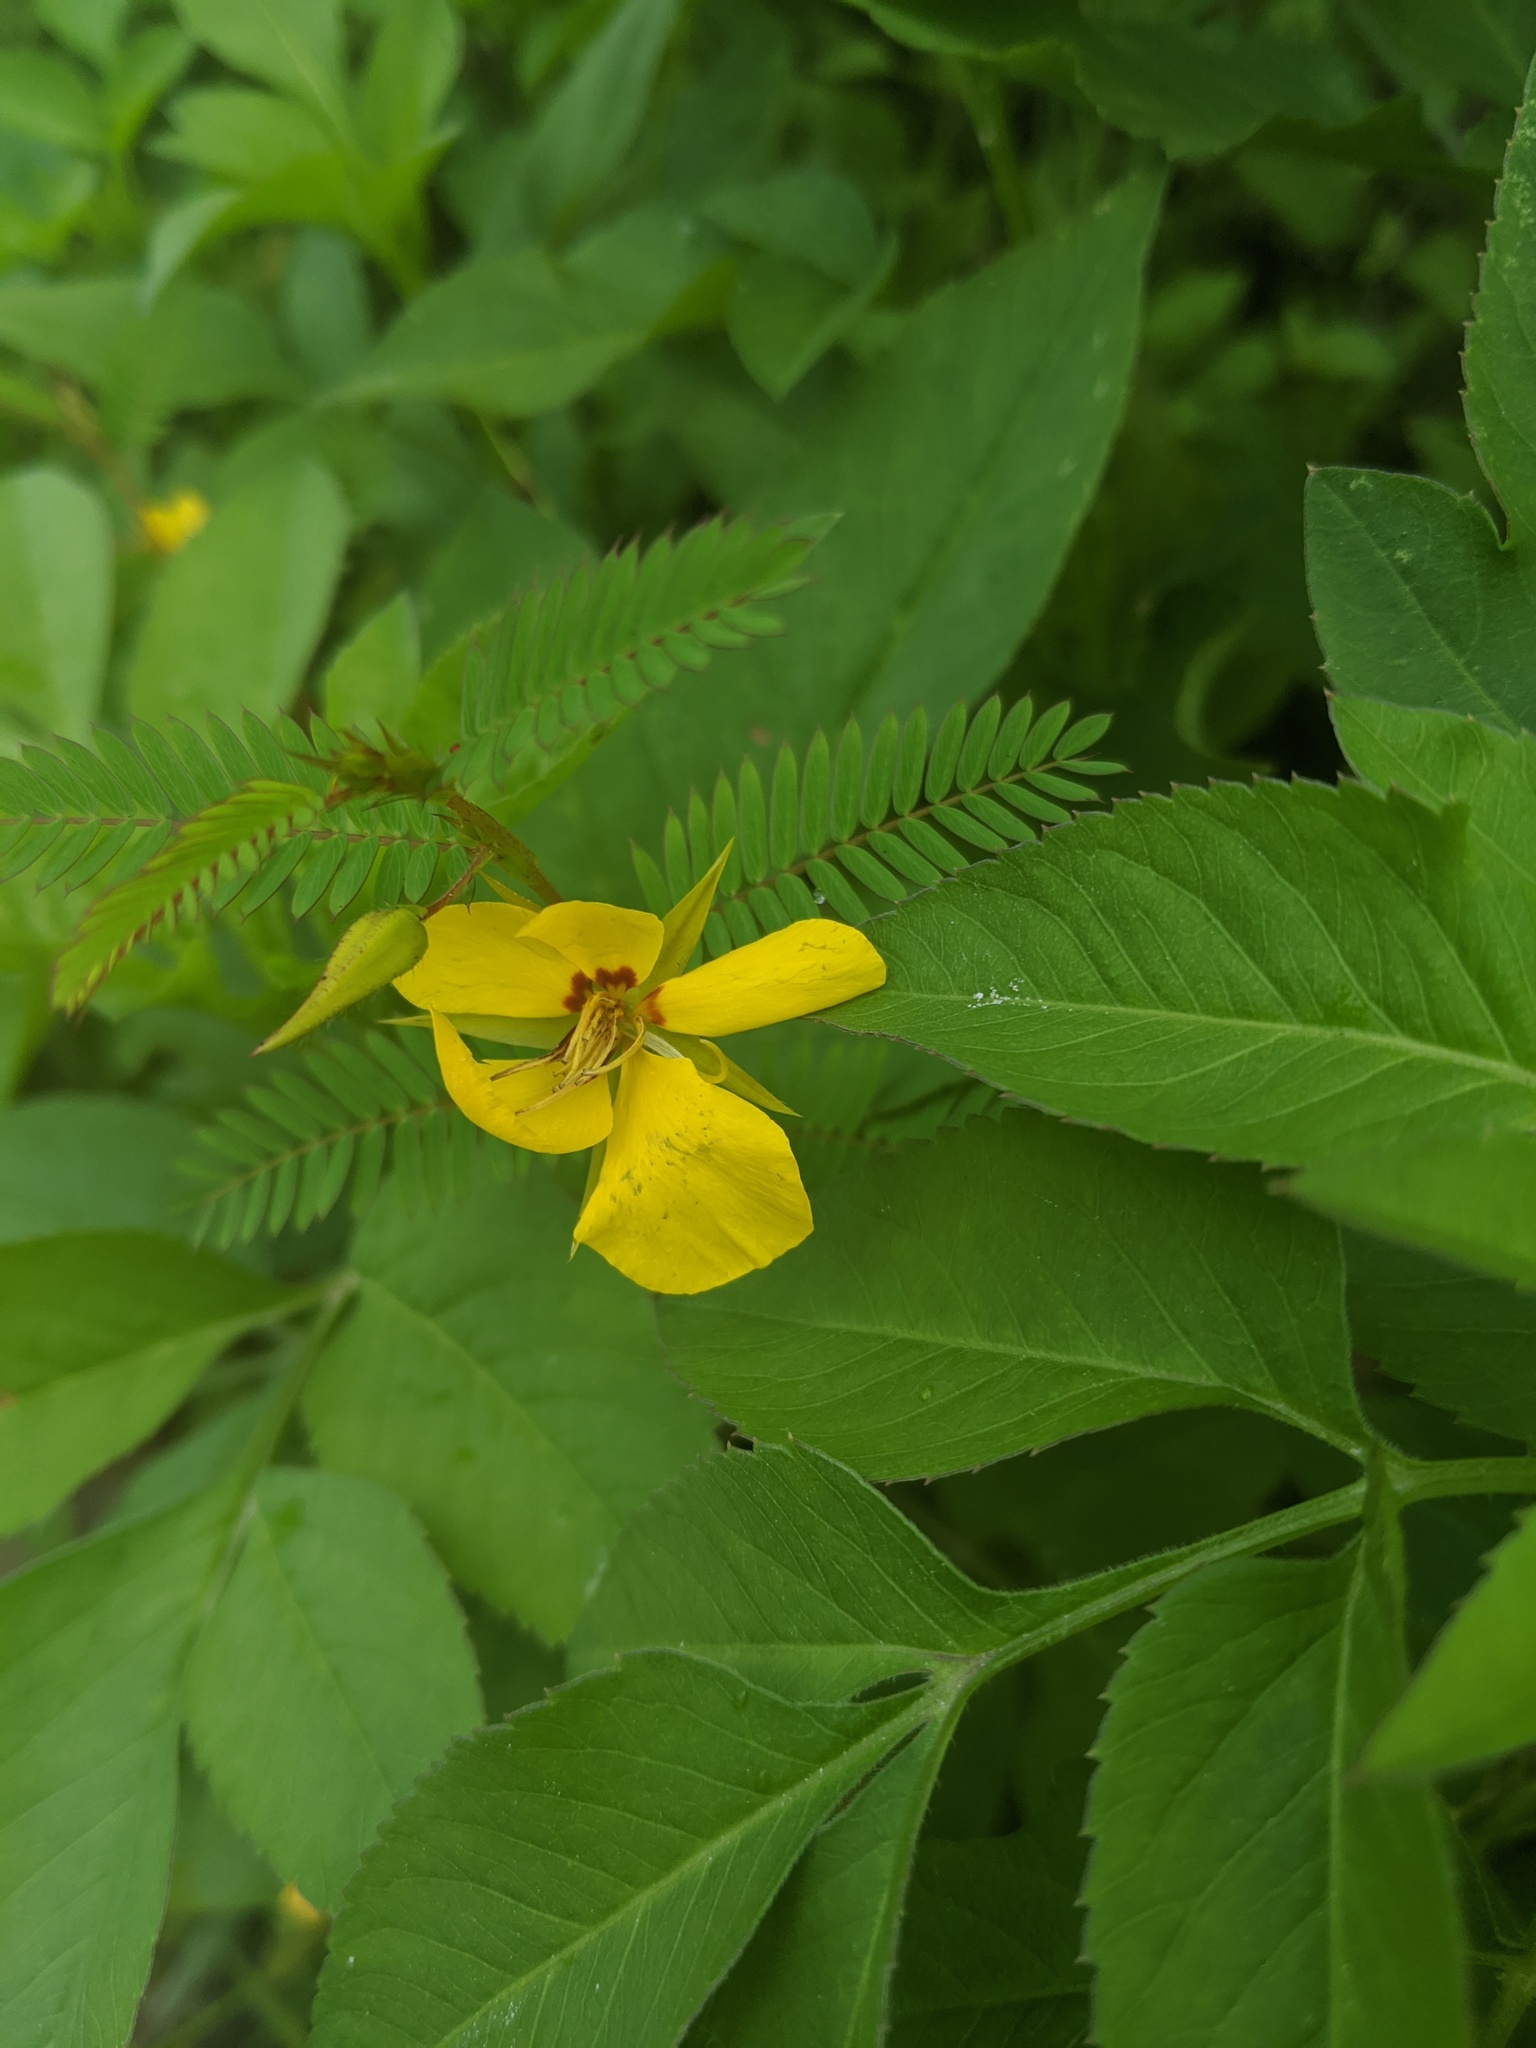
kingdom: Plantae
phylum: Tracheophyta
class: Magnoliopsida
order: Fabales
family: Fabaceae
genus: Chamaecrista
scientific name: Chamaecrista fasciculata
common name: Golden cassia
